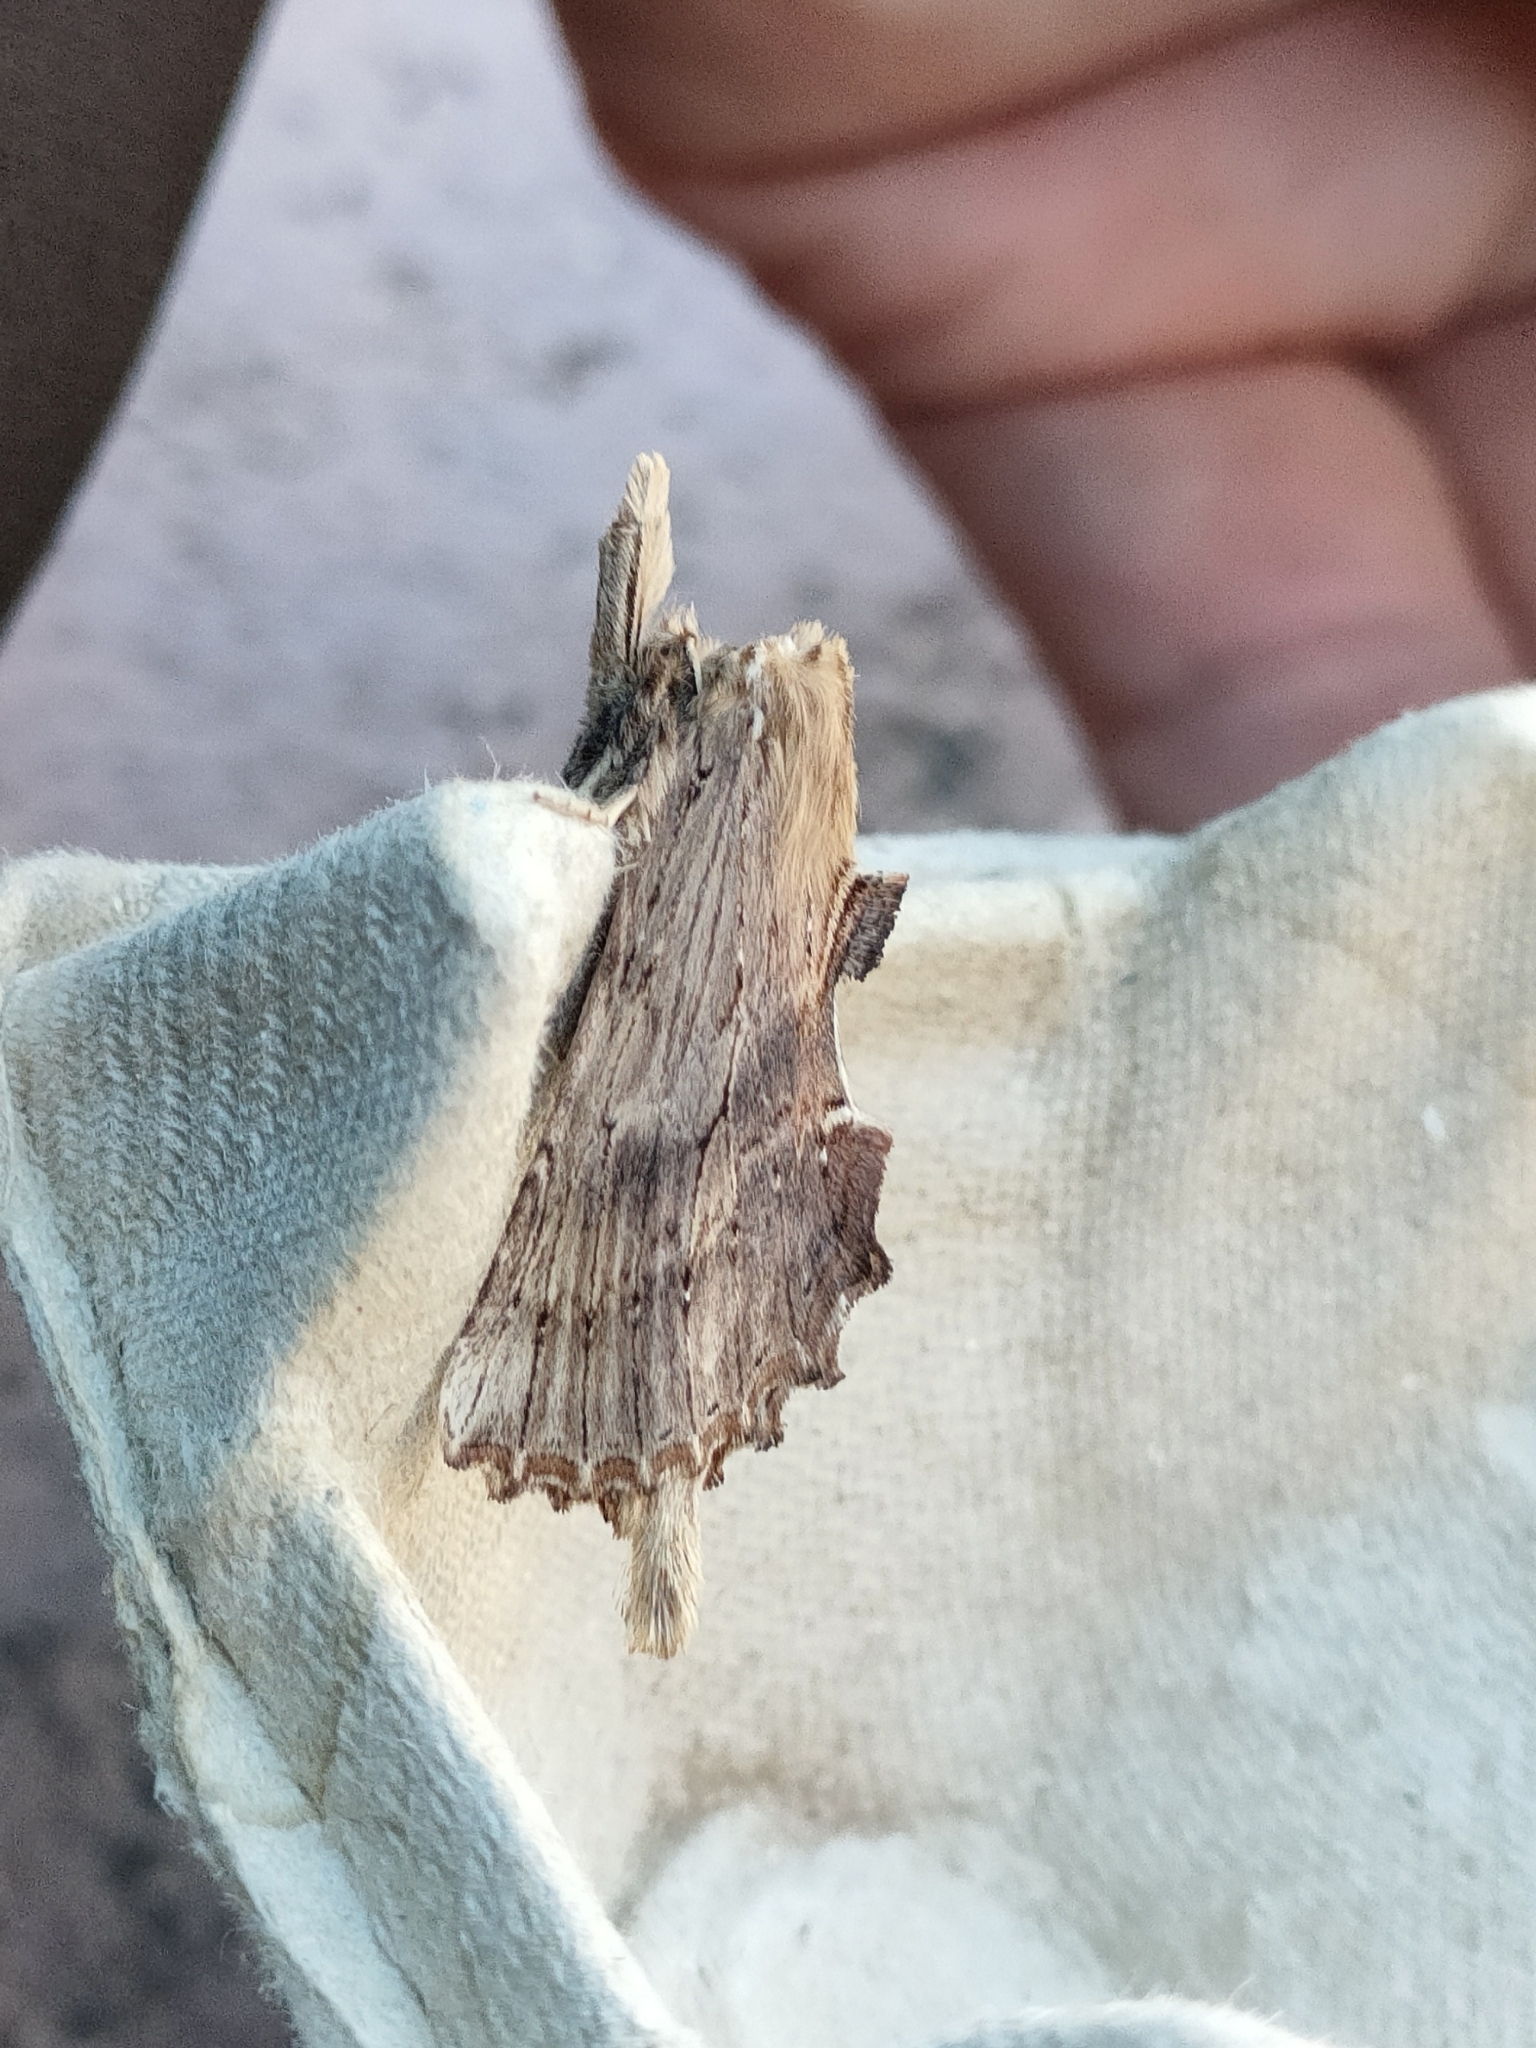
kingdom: Animalia
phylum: Arthropoda
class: Insecta
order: Lepidoptera
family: Notodontidae
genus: Pterostoma
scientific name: Pterostoma palpina
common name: Pale prominent
